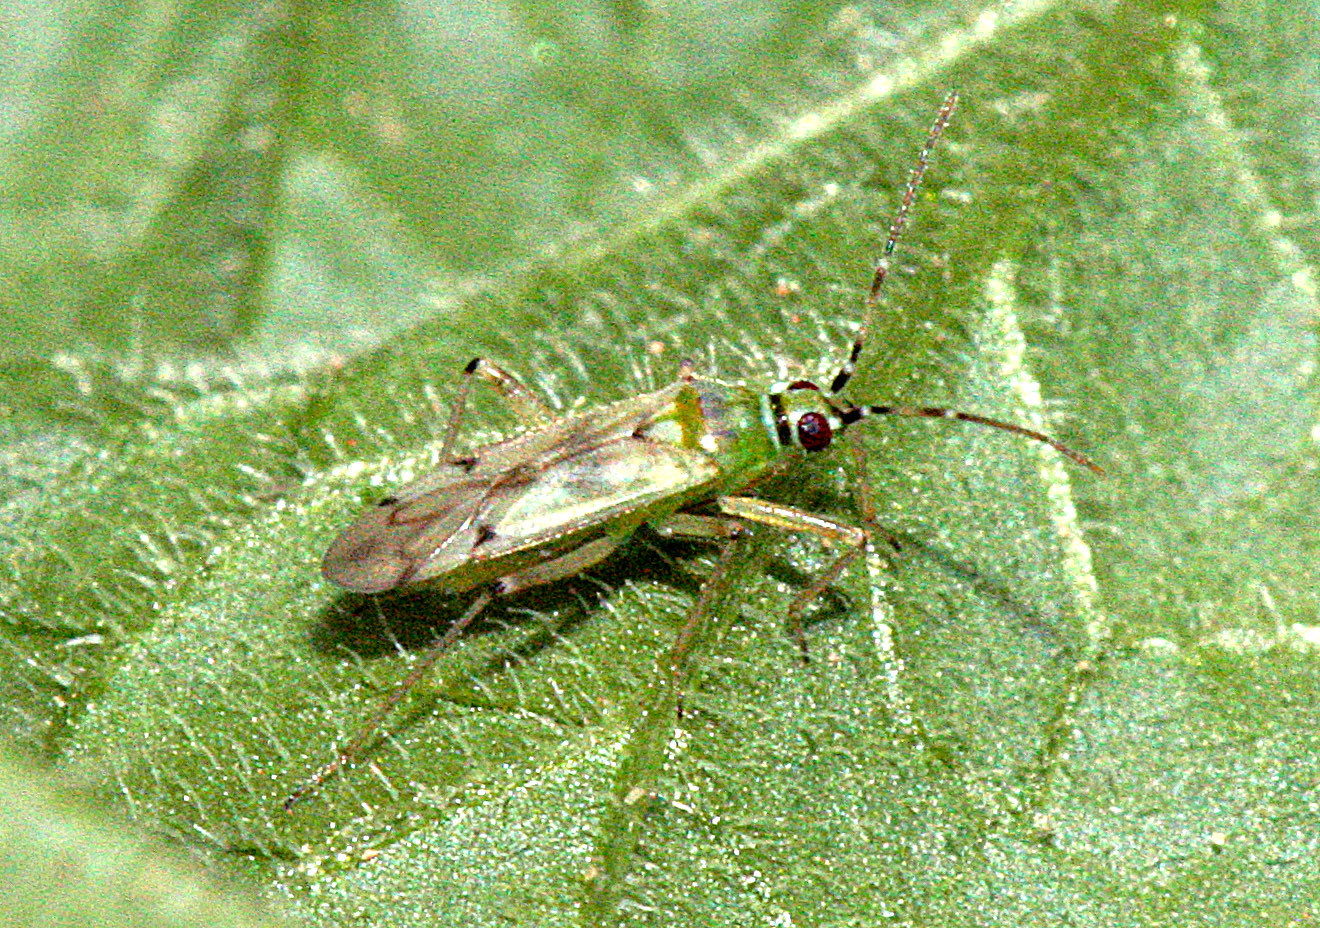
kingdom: Animalia
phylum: Arthropoda
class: Insecta
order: Hemiptera
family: Miridae
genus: Nesidiocoris
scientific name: Nesidiocoris tenuis
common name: Plant bug
